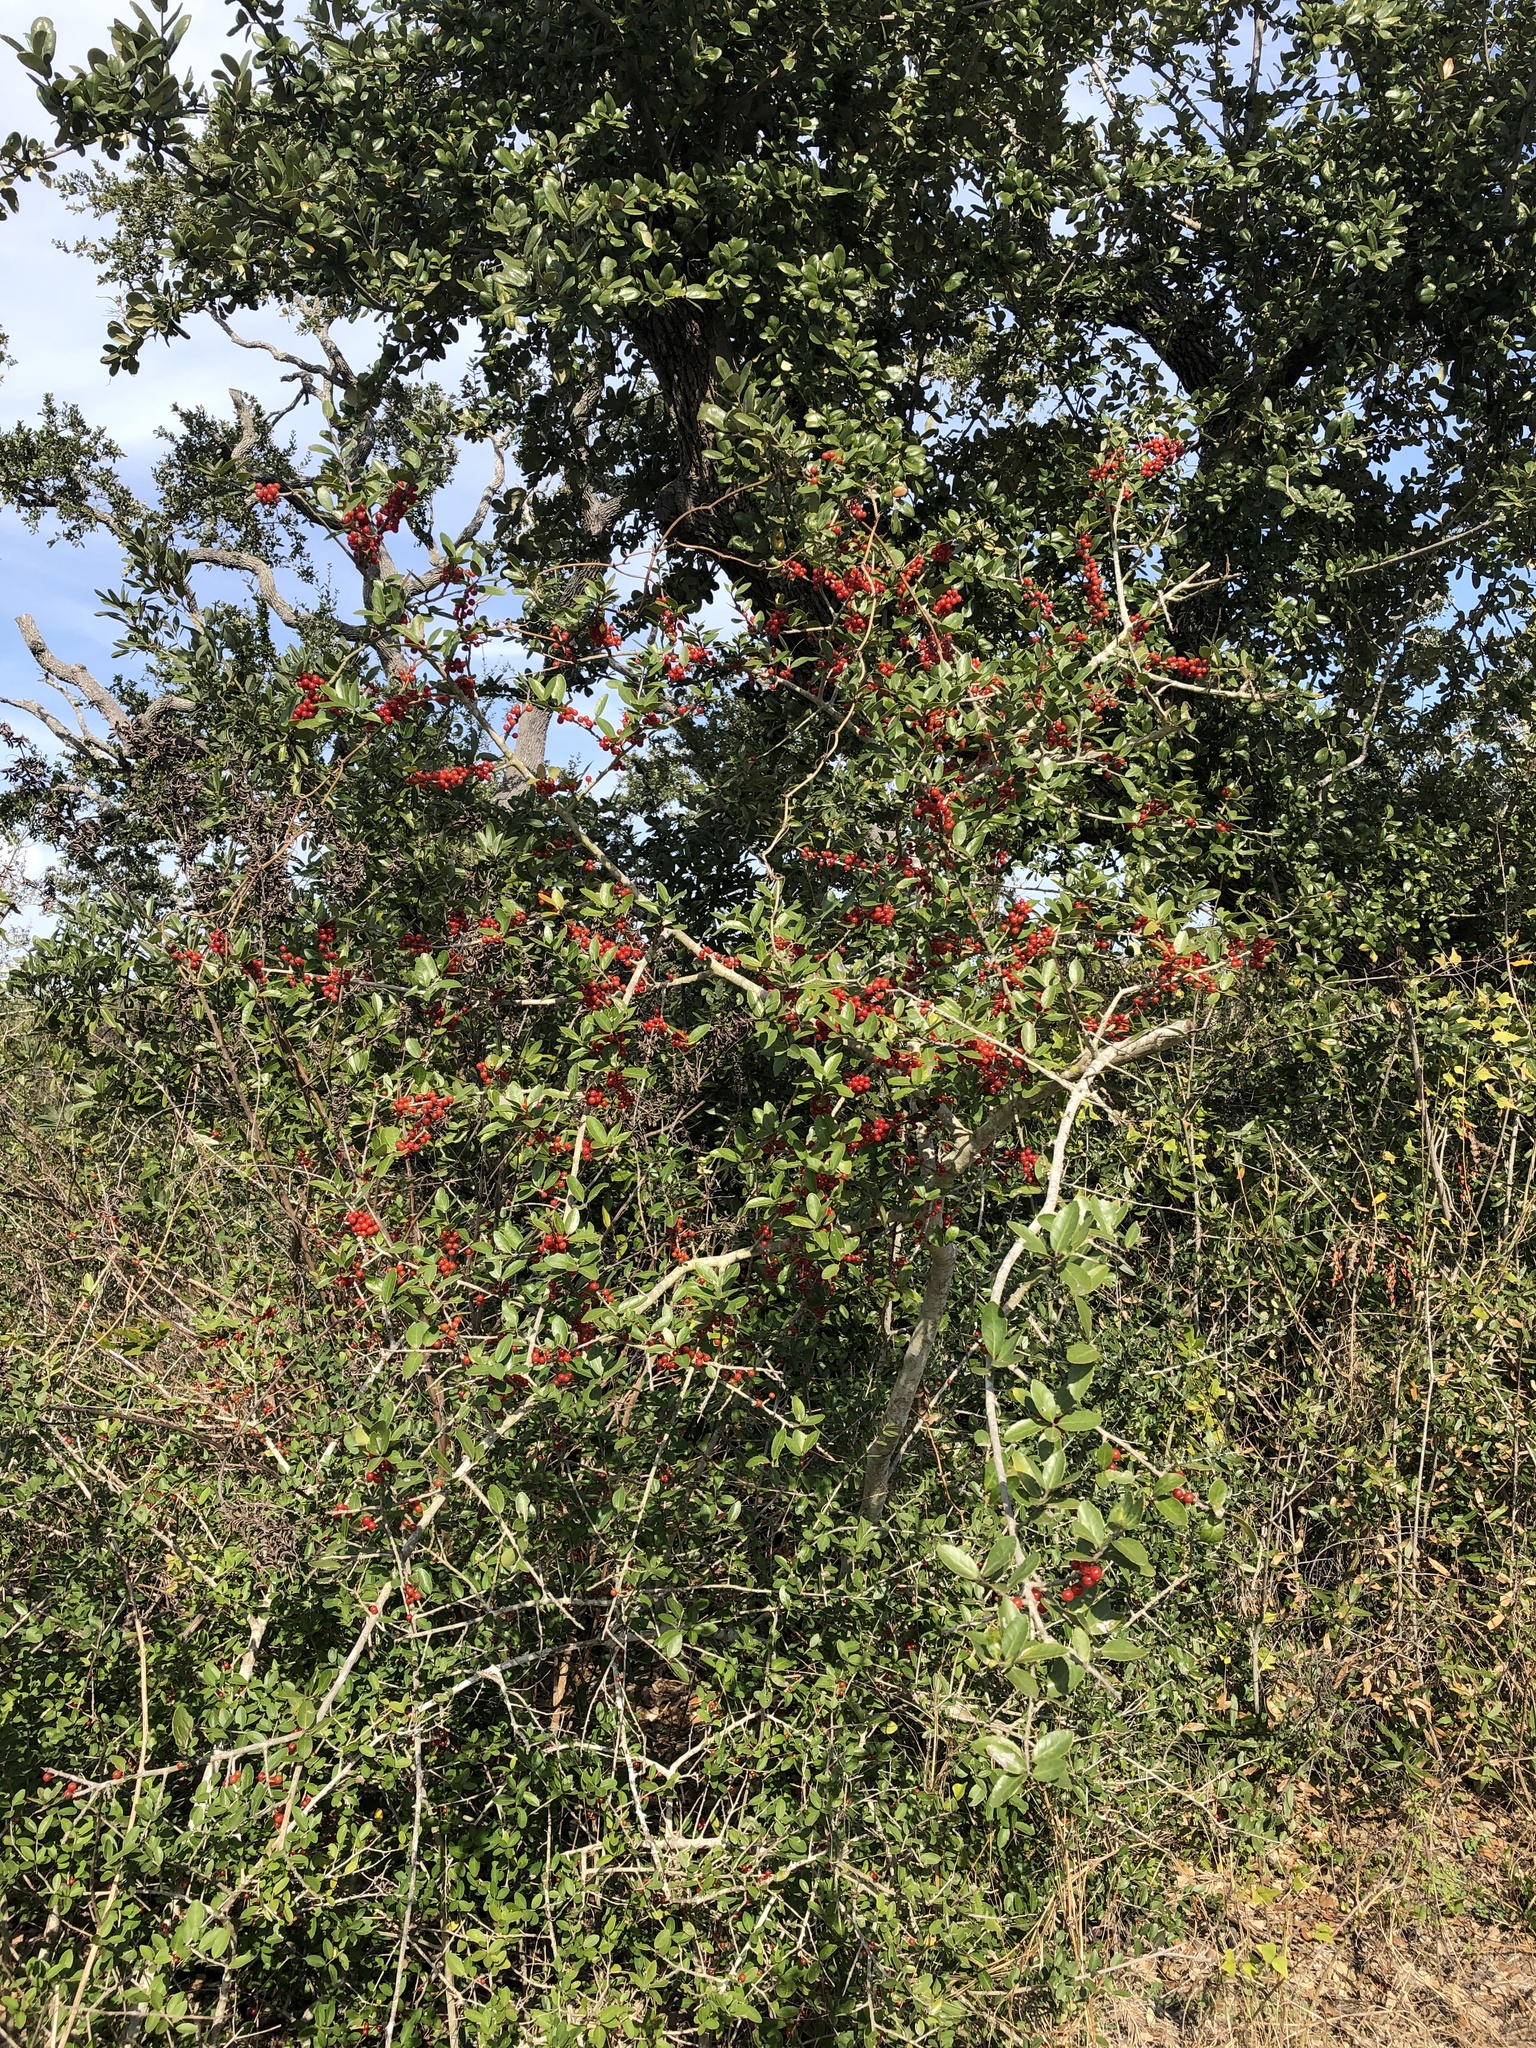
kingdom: Plantae
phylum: Tracheophyta
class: Magnoliopsida
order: Aquifoliales
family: Aquifoliaceae
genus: Ilex
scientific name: Ilex vomitoria
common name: Yaupon holly
